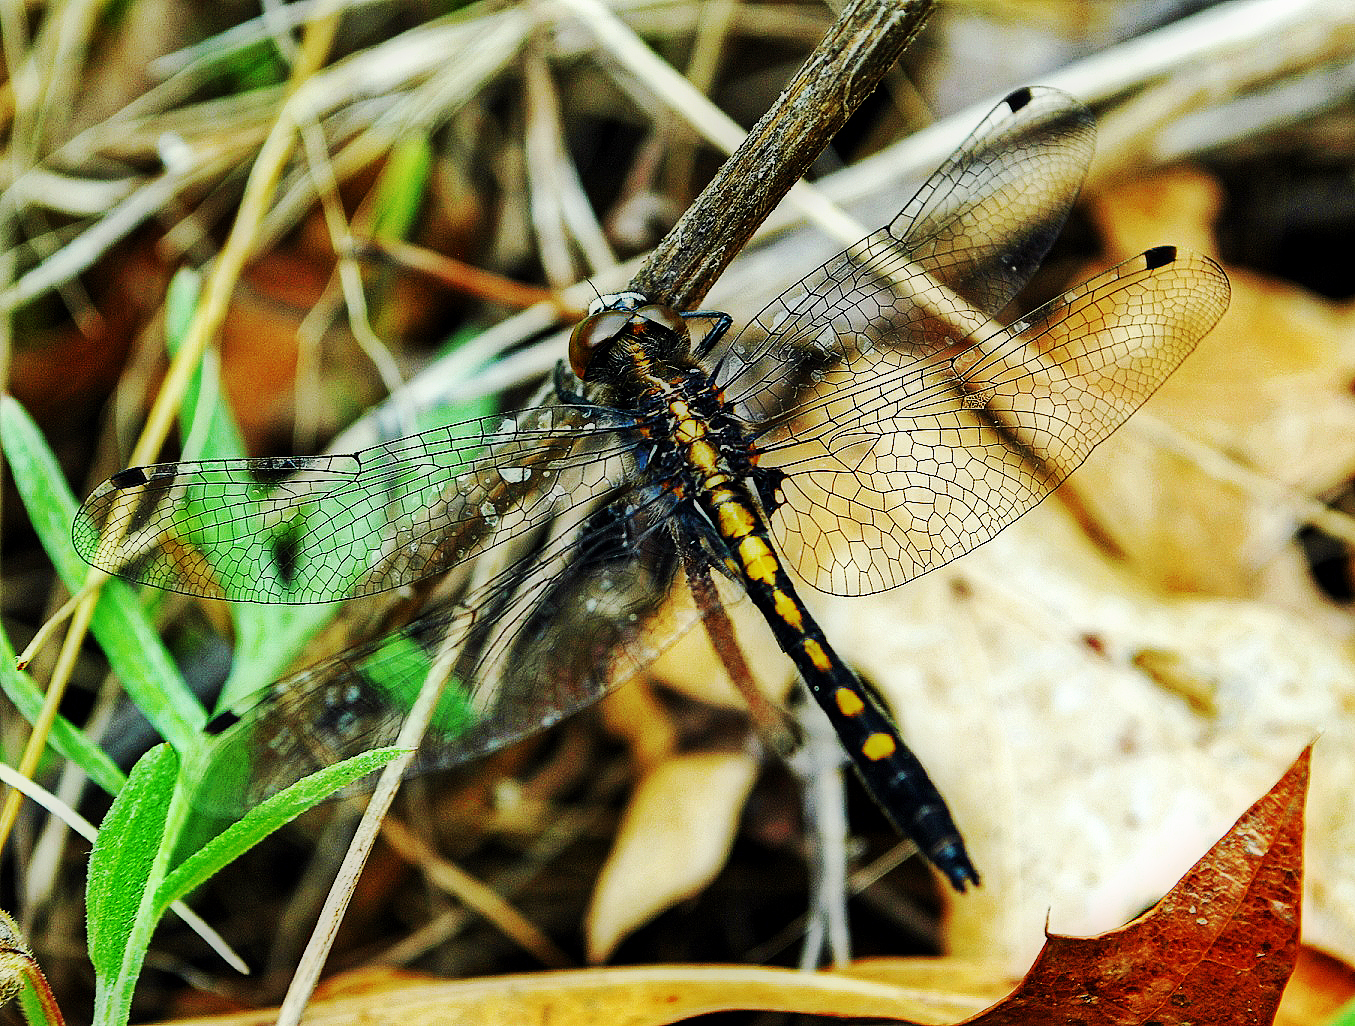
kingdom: Animalia
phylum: Arthropoda
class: Insecta
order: Odonata
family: Libellulidae
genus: Leucorrhinia
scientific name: Leucorrhinia intacta
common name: Dot-tailed whiteface
